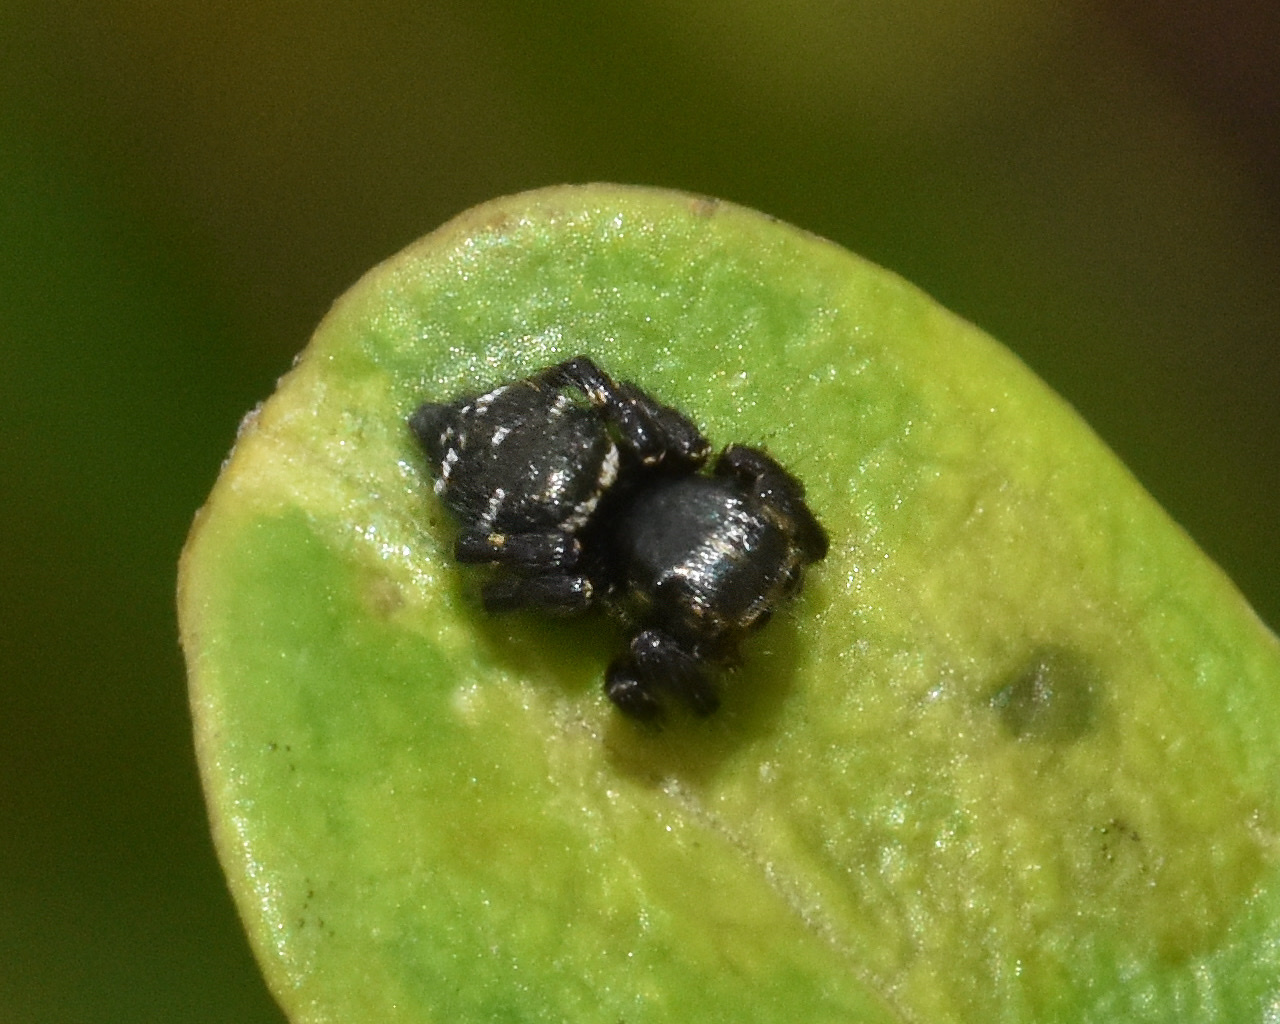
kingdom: Animalia
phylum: Arthropoda
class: Arachnida
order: Araneae
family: Salticidae
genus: Baryphas
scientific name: Baryphas ahenus
